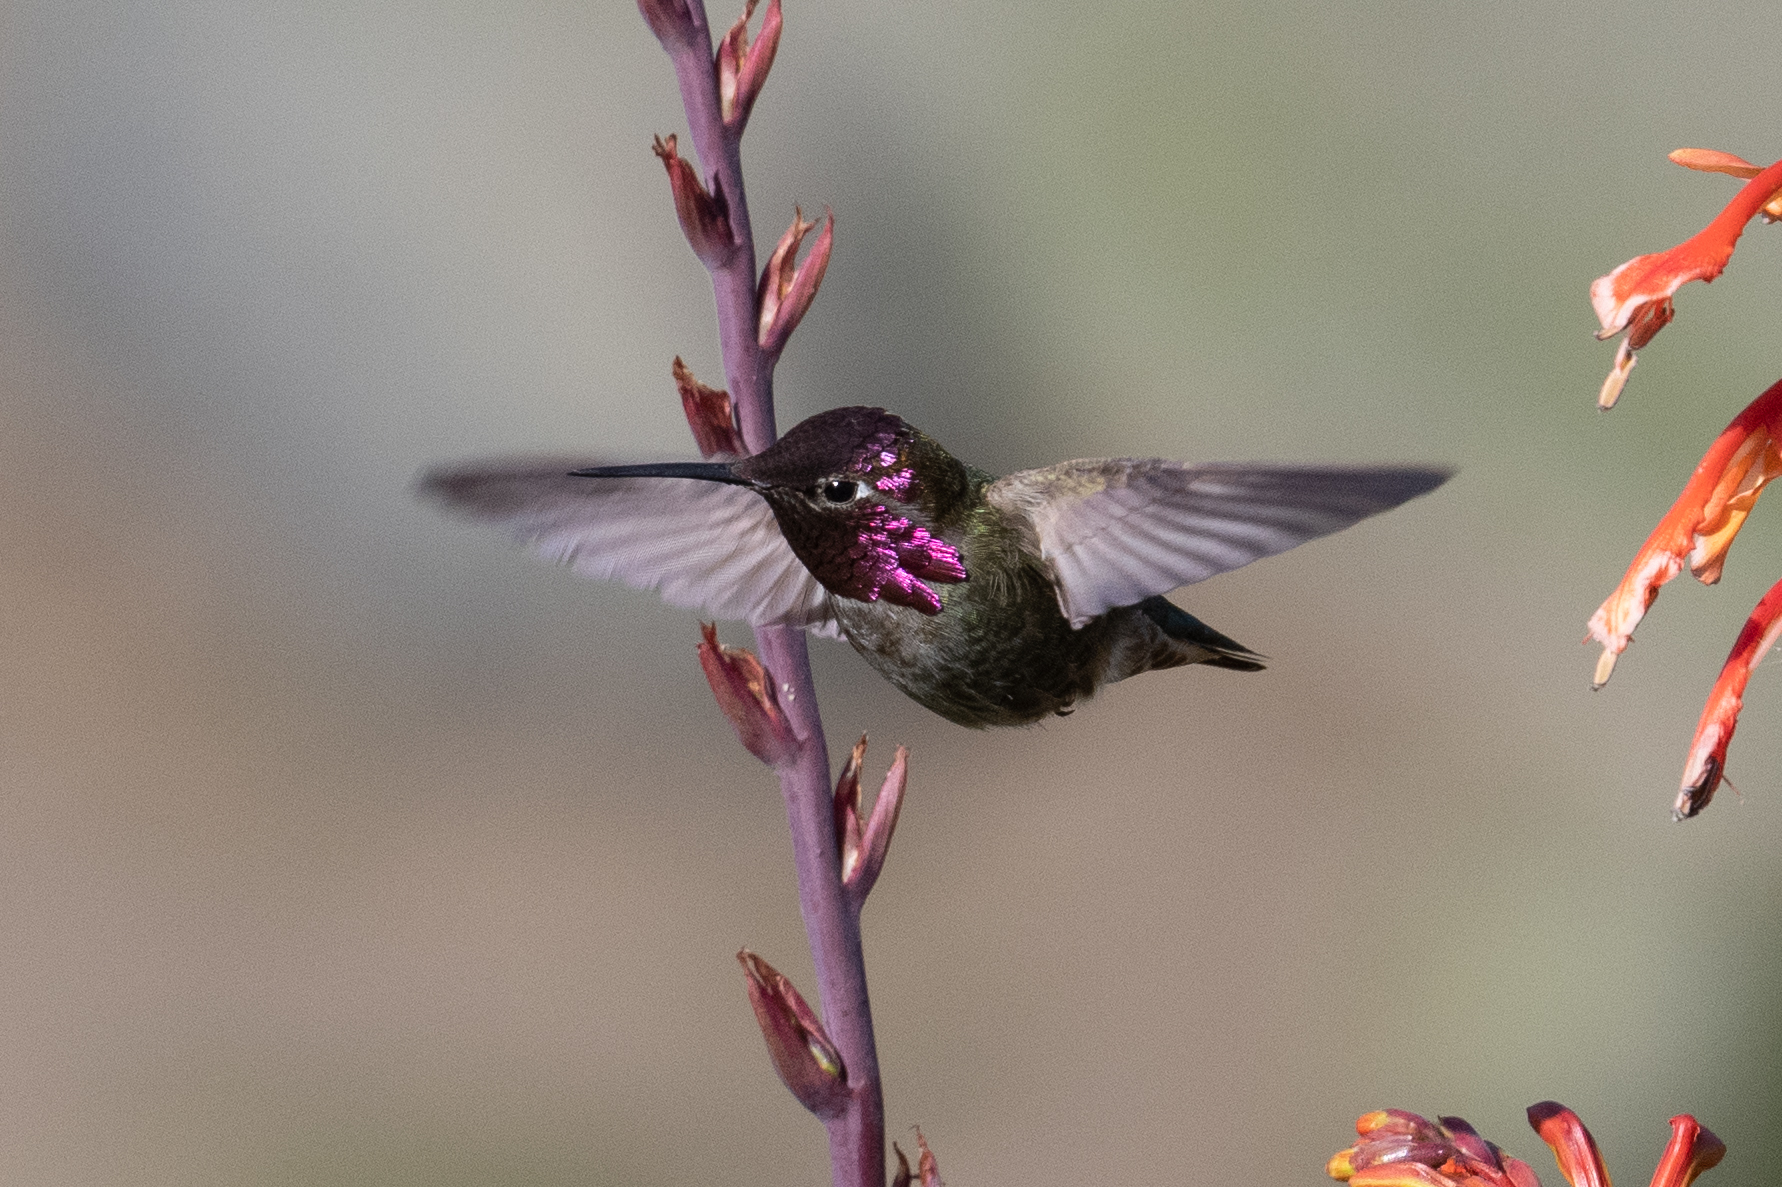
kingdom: Animalia
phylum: Chordata
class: Aves
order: Apodiformes
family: Trochilidae
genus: Calypte
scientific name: Calypte anna
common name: Anna's hummingbird
